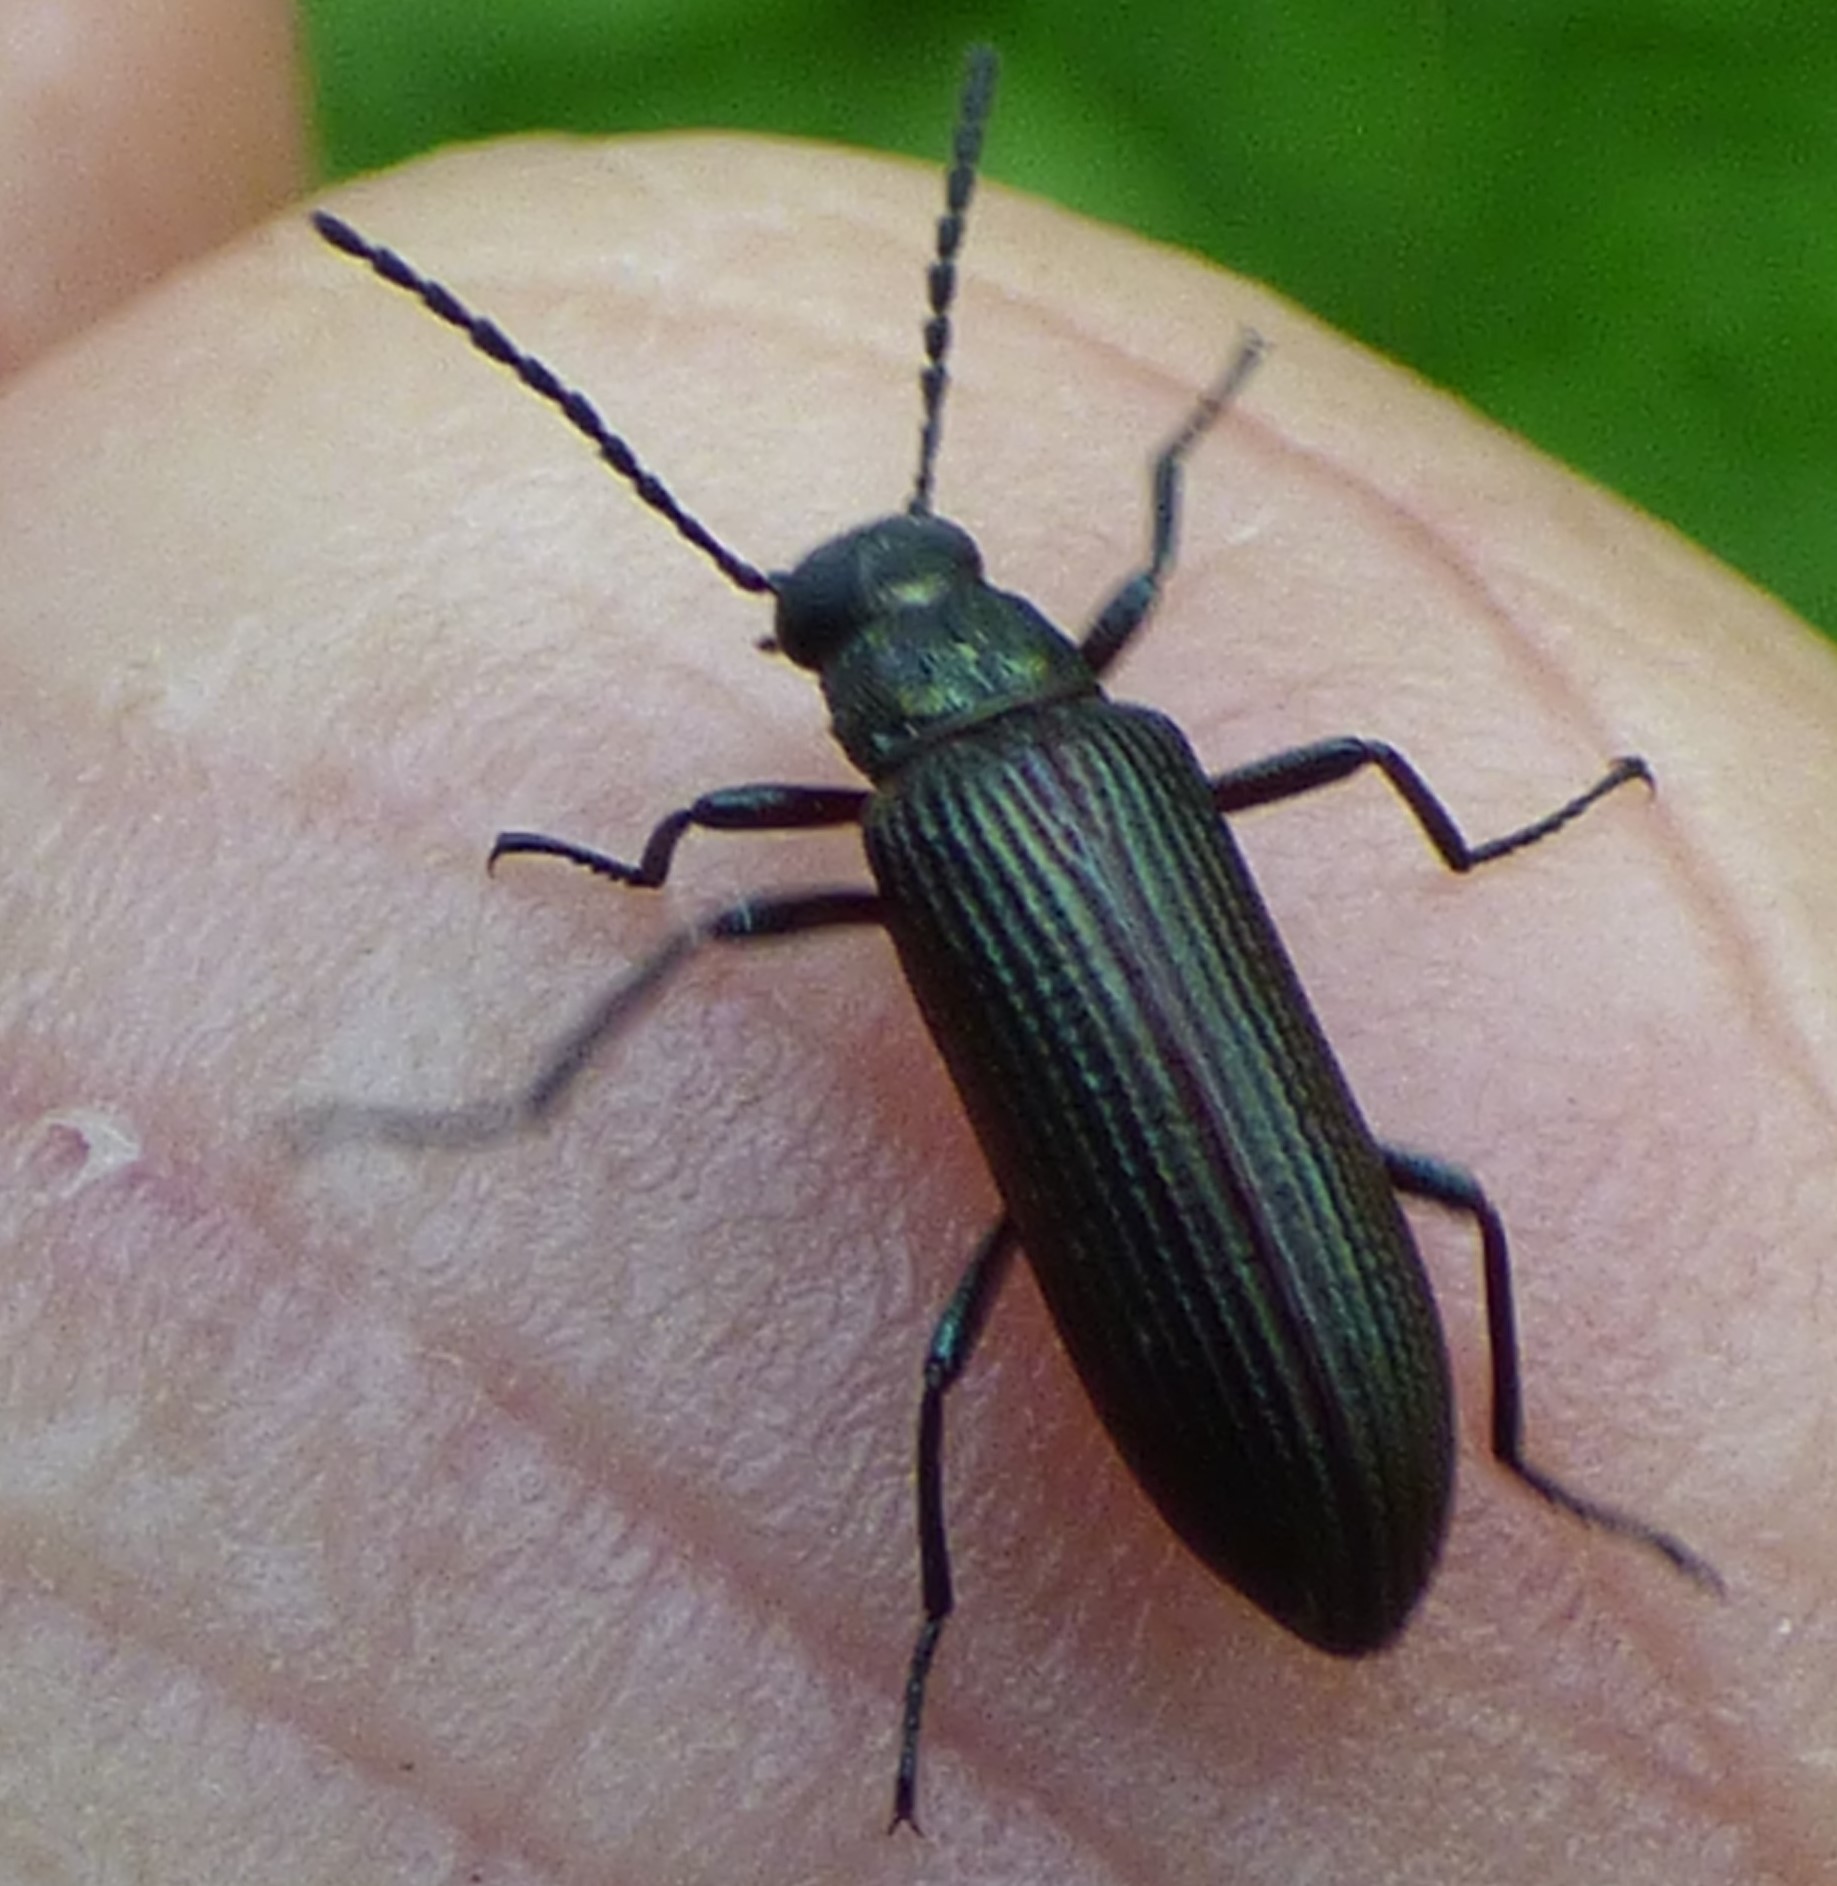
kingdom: Animalia
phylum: Arthropoda
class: Insecta
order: Coleoptera
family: Tenebrionidae
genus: Strongylium
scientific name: Strongylium
